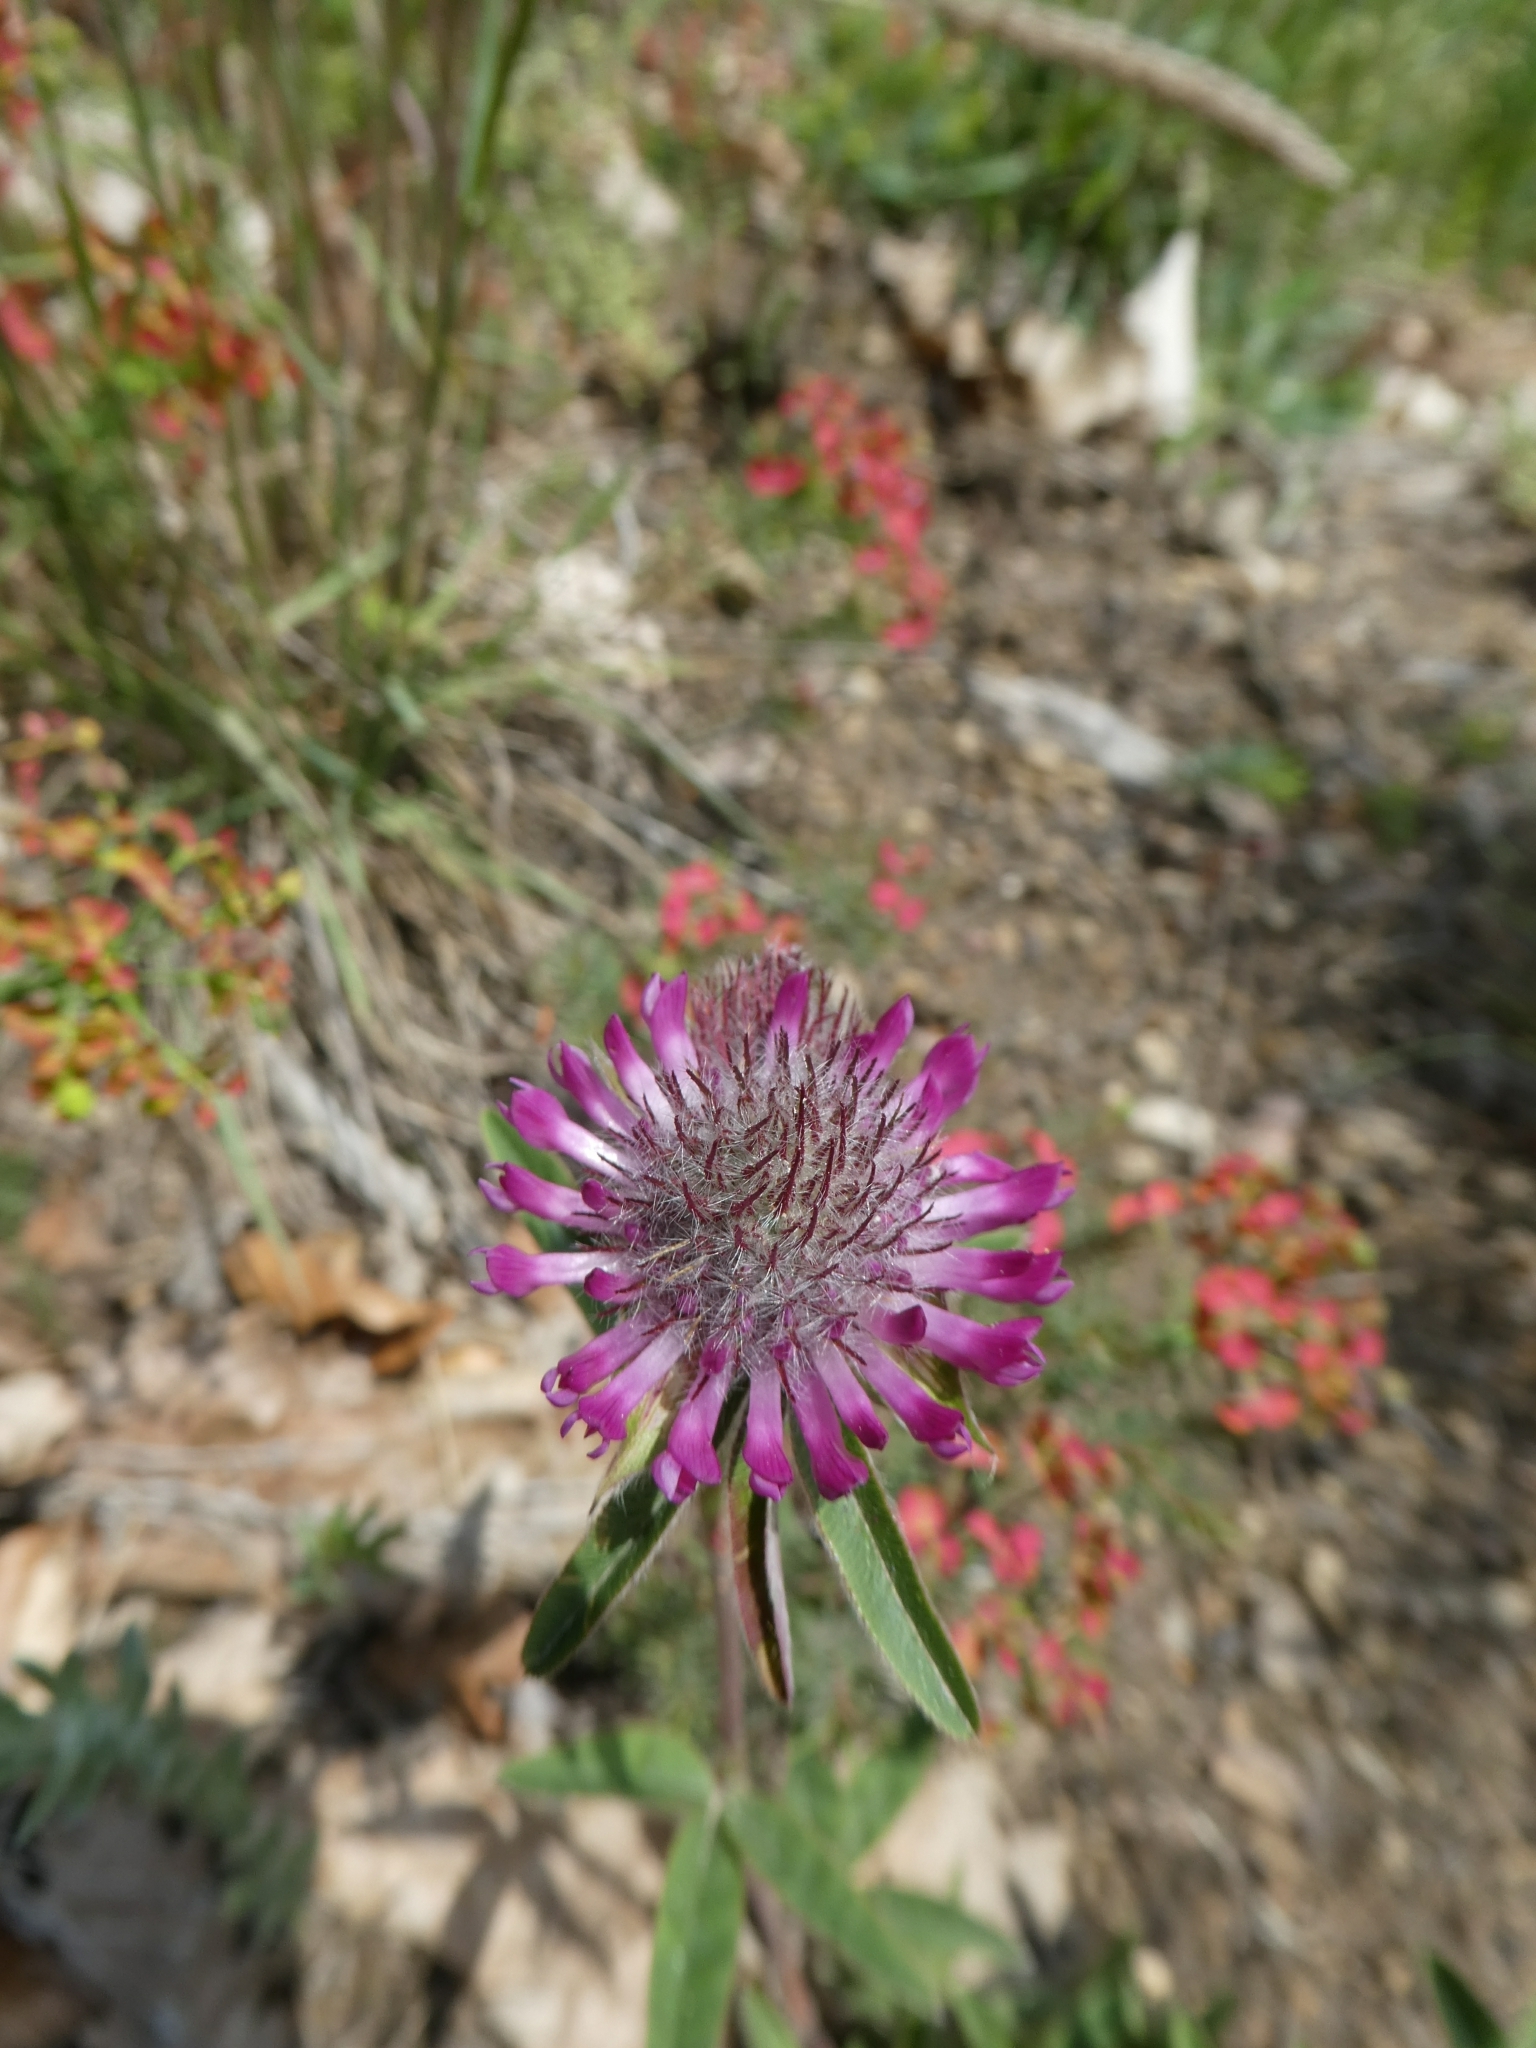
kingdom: Plantae
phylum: Tracheophyta
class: Magnoliopsida
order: Fabales
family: Fabaceae
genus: Trifolium
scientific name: Trifolium alpestre
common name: Owl-head clover
